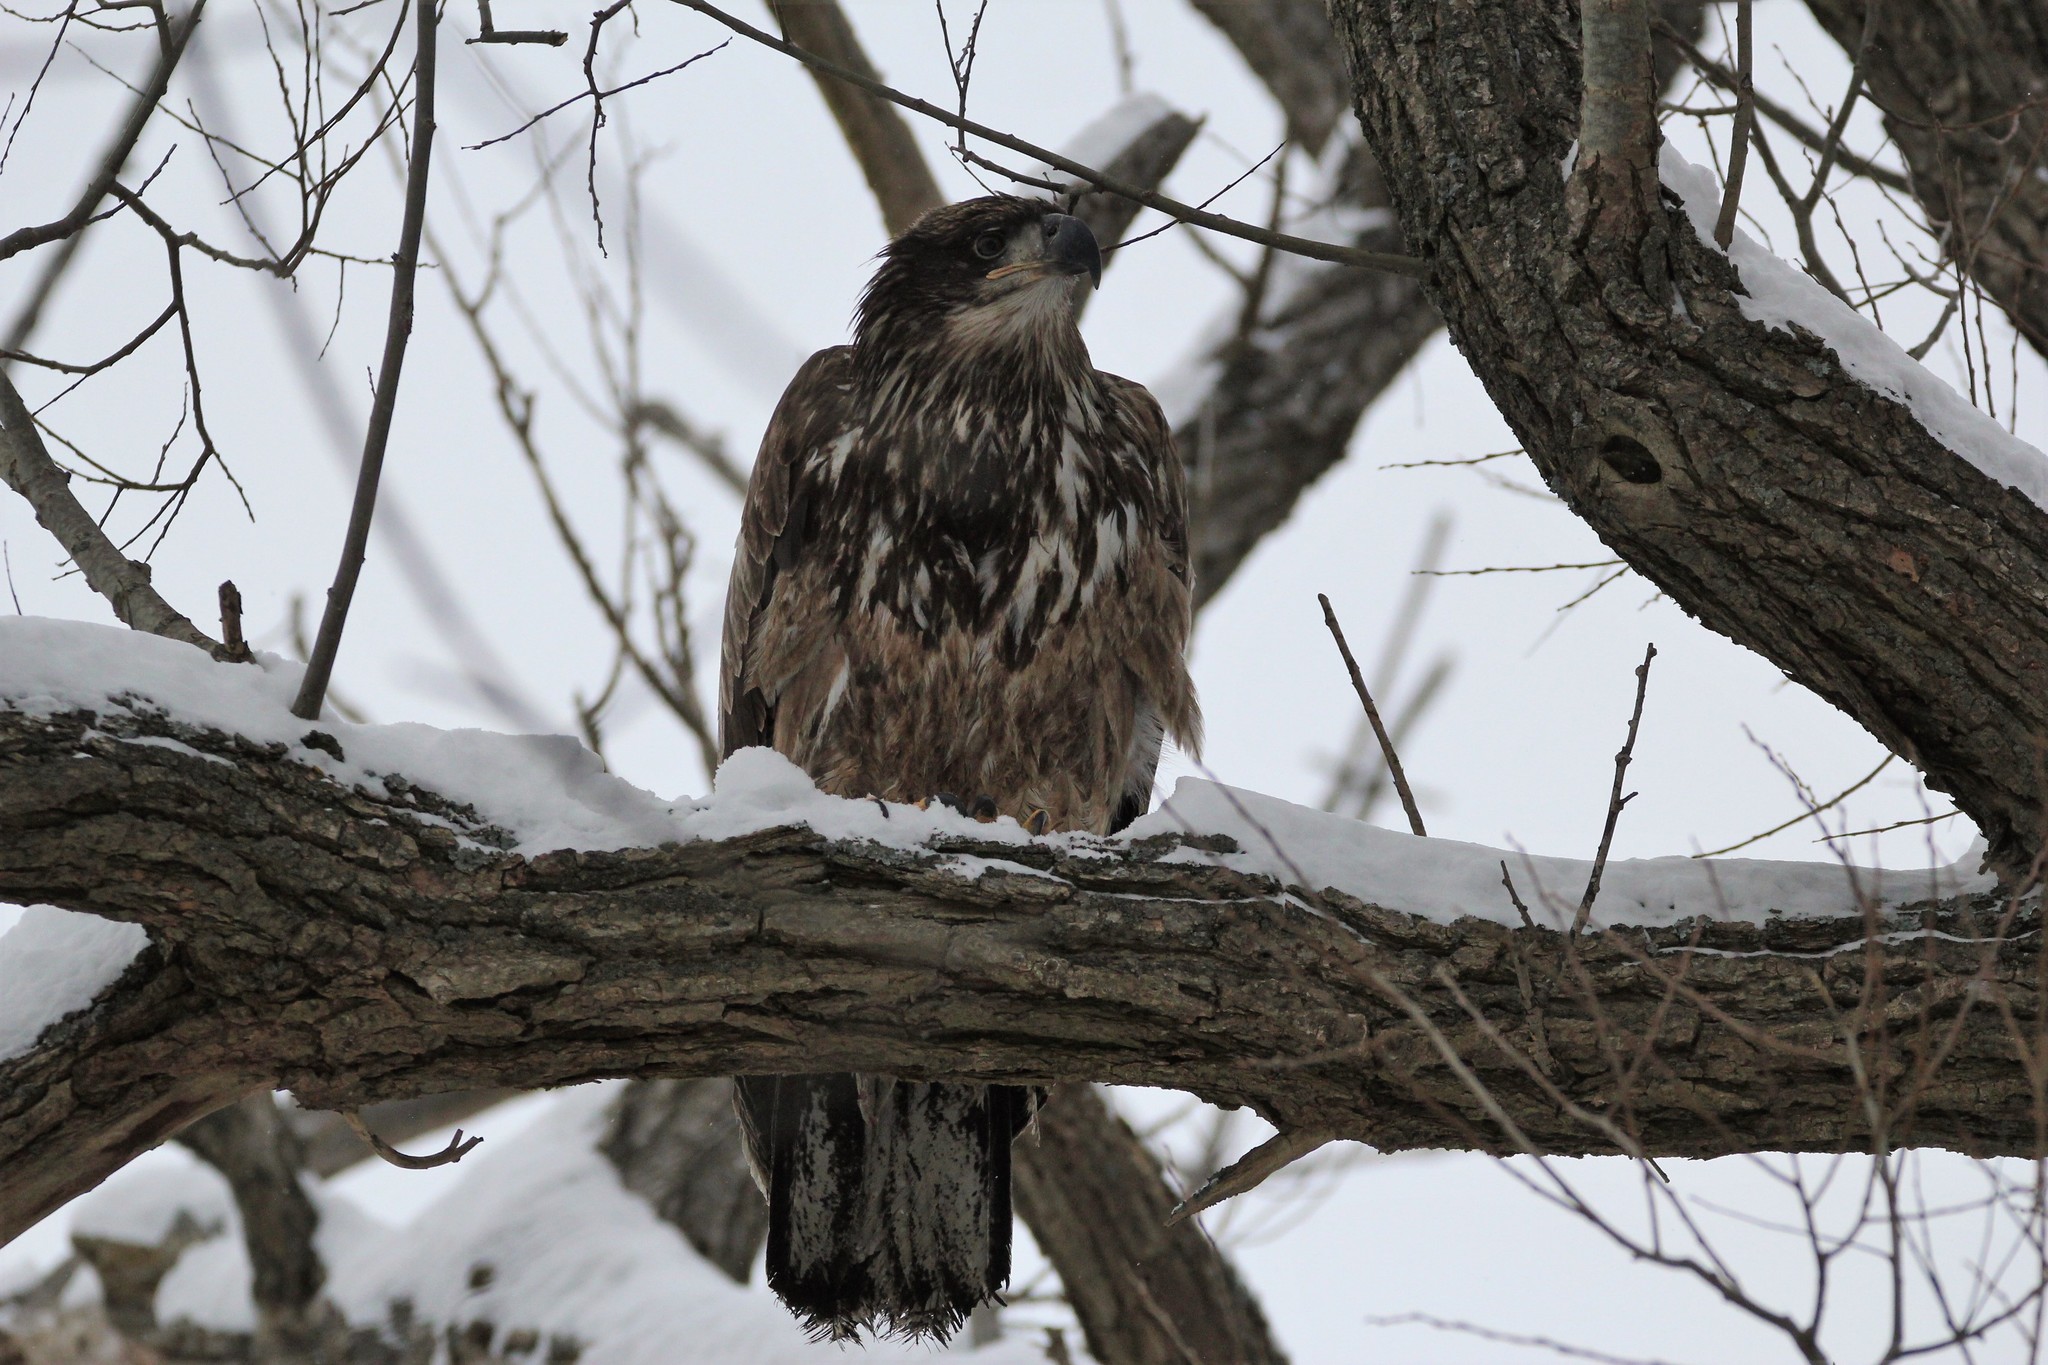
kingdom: Animalia
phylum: Chordata
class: Aves
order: Accipitriformes
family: Accipitridae
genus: Haliaeetus
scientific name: Haliaeetus leucocephalus
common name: Bald eagle
